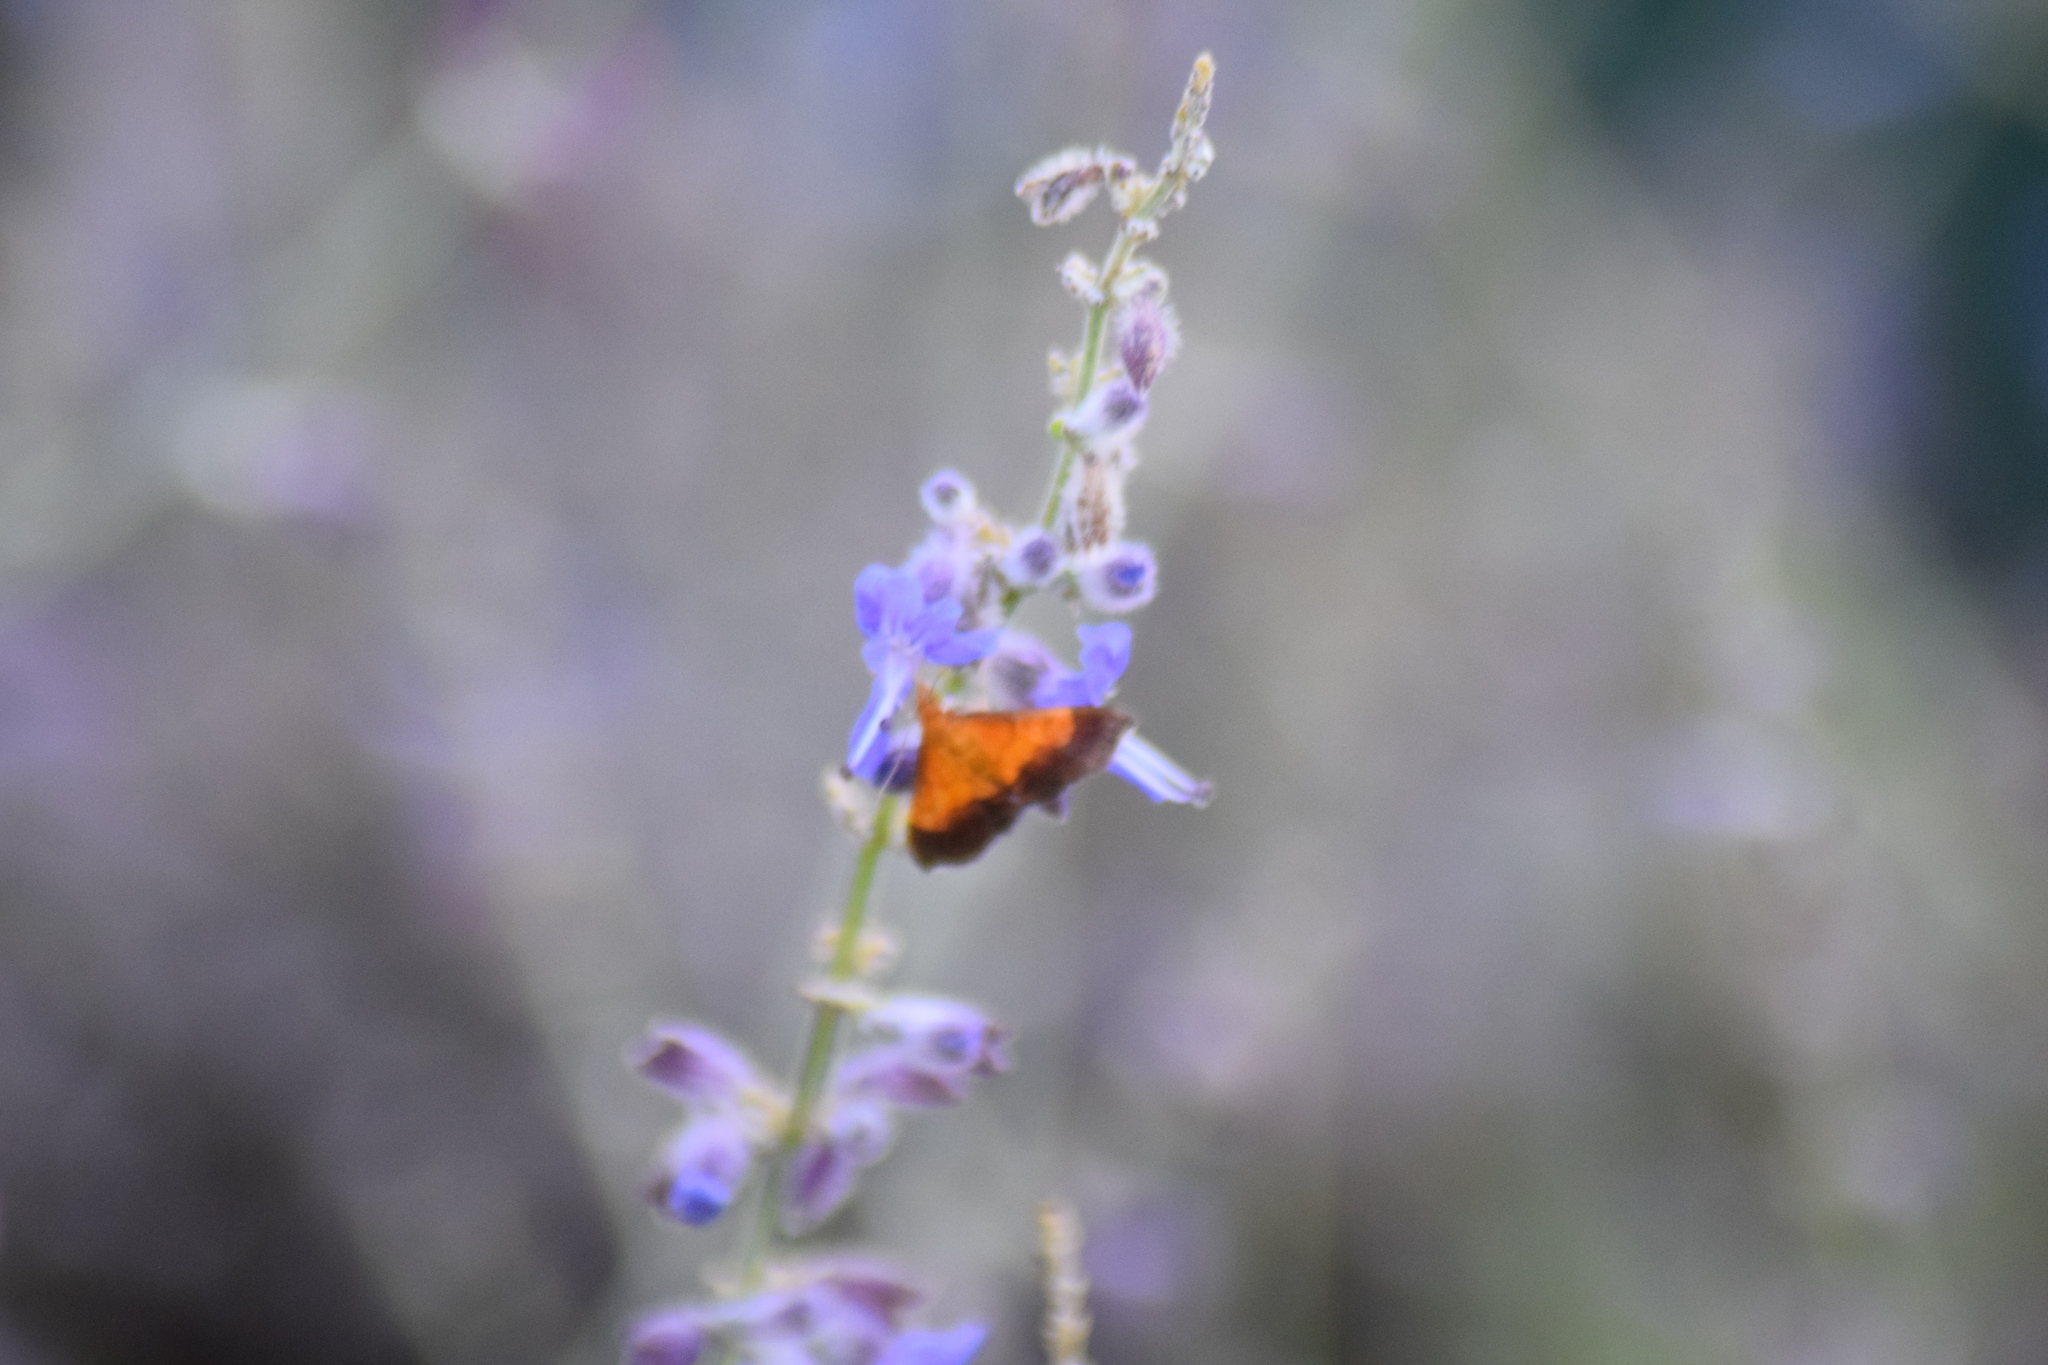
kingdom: Animalia
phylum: Arthropoda
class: Insecta
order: Lepidoptera
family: Crambidae
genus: Pyrausta
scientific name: Pyrausta bicoloralis
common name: Bicolored pyrausta moth
